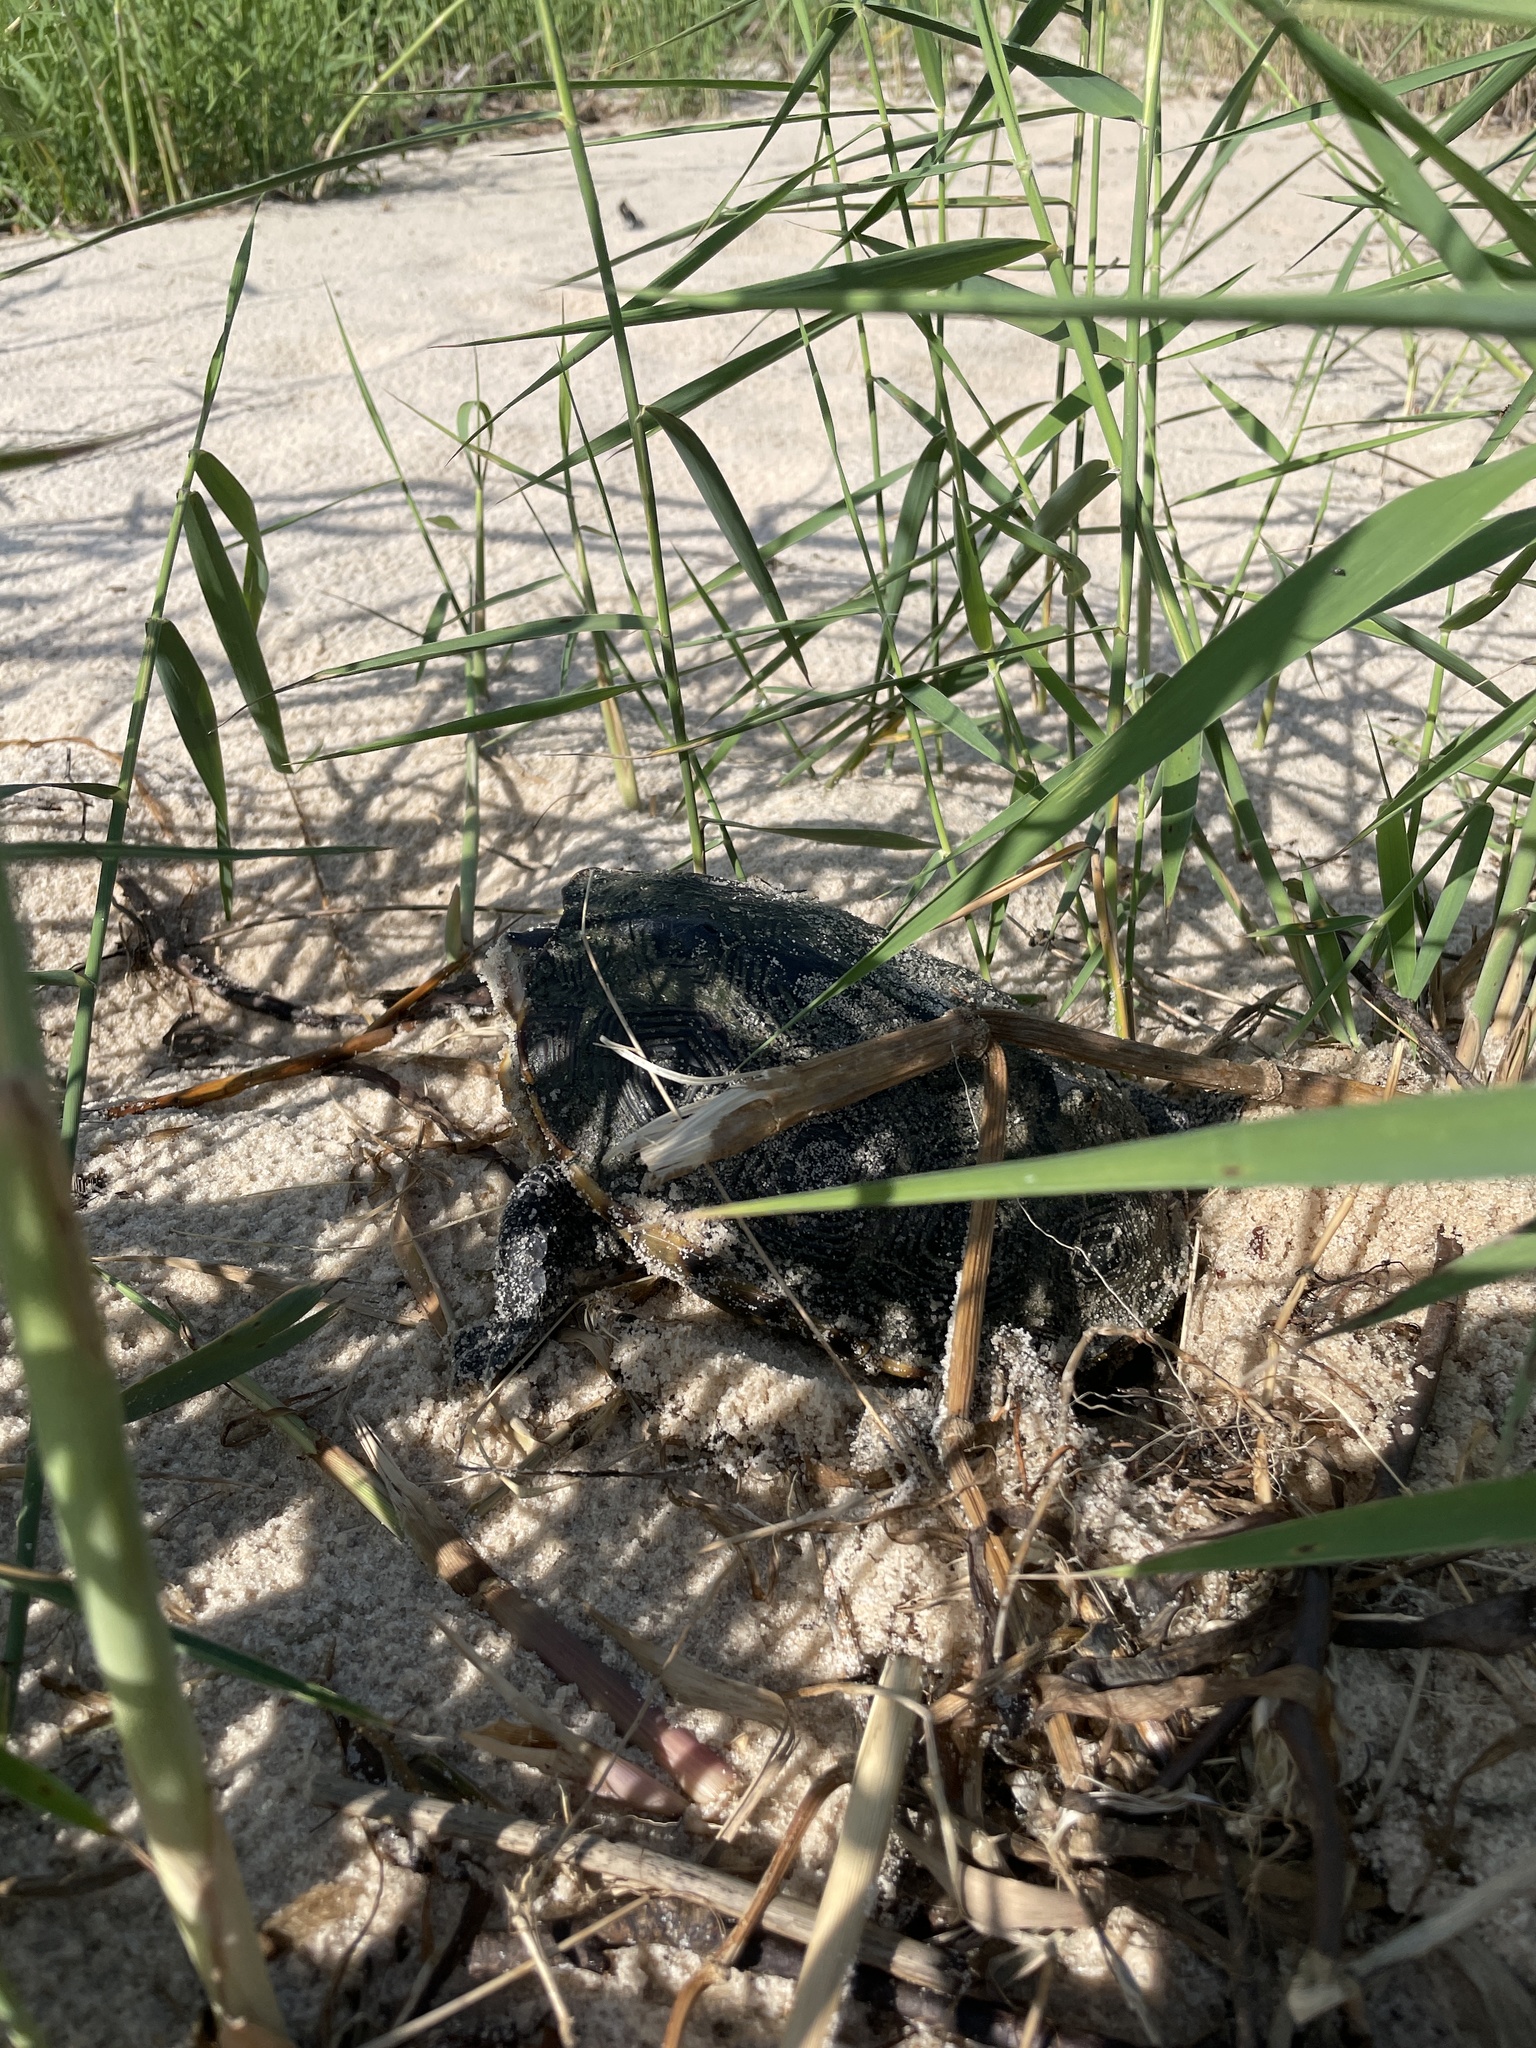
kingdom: Animalia
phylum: Chordata
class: Testudines
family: Emydidae
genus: Malaclemys
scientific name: Malaclemys terrapin
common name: Diamondback terrapin
